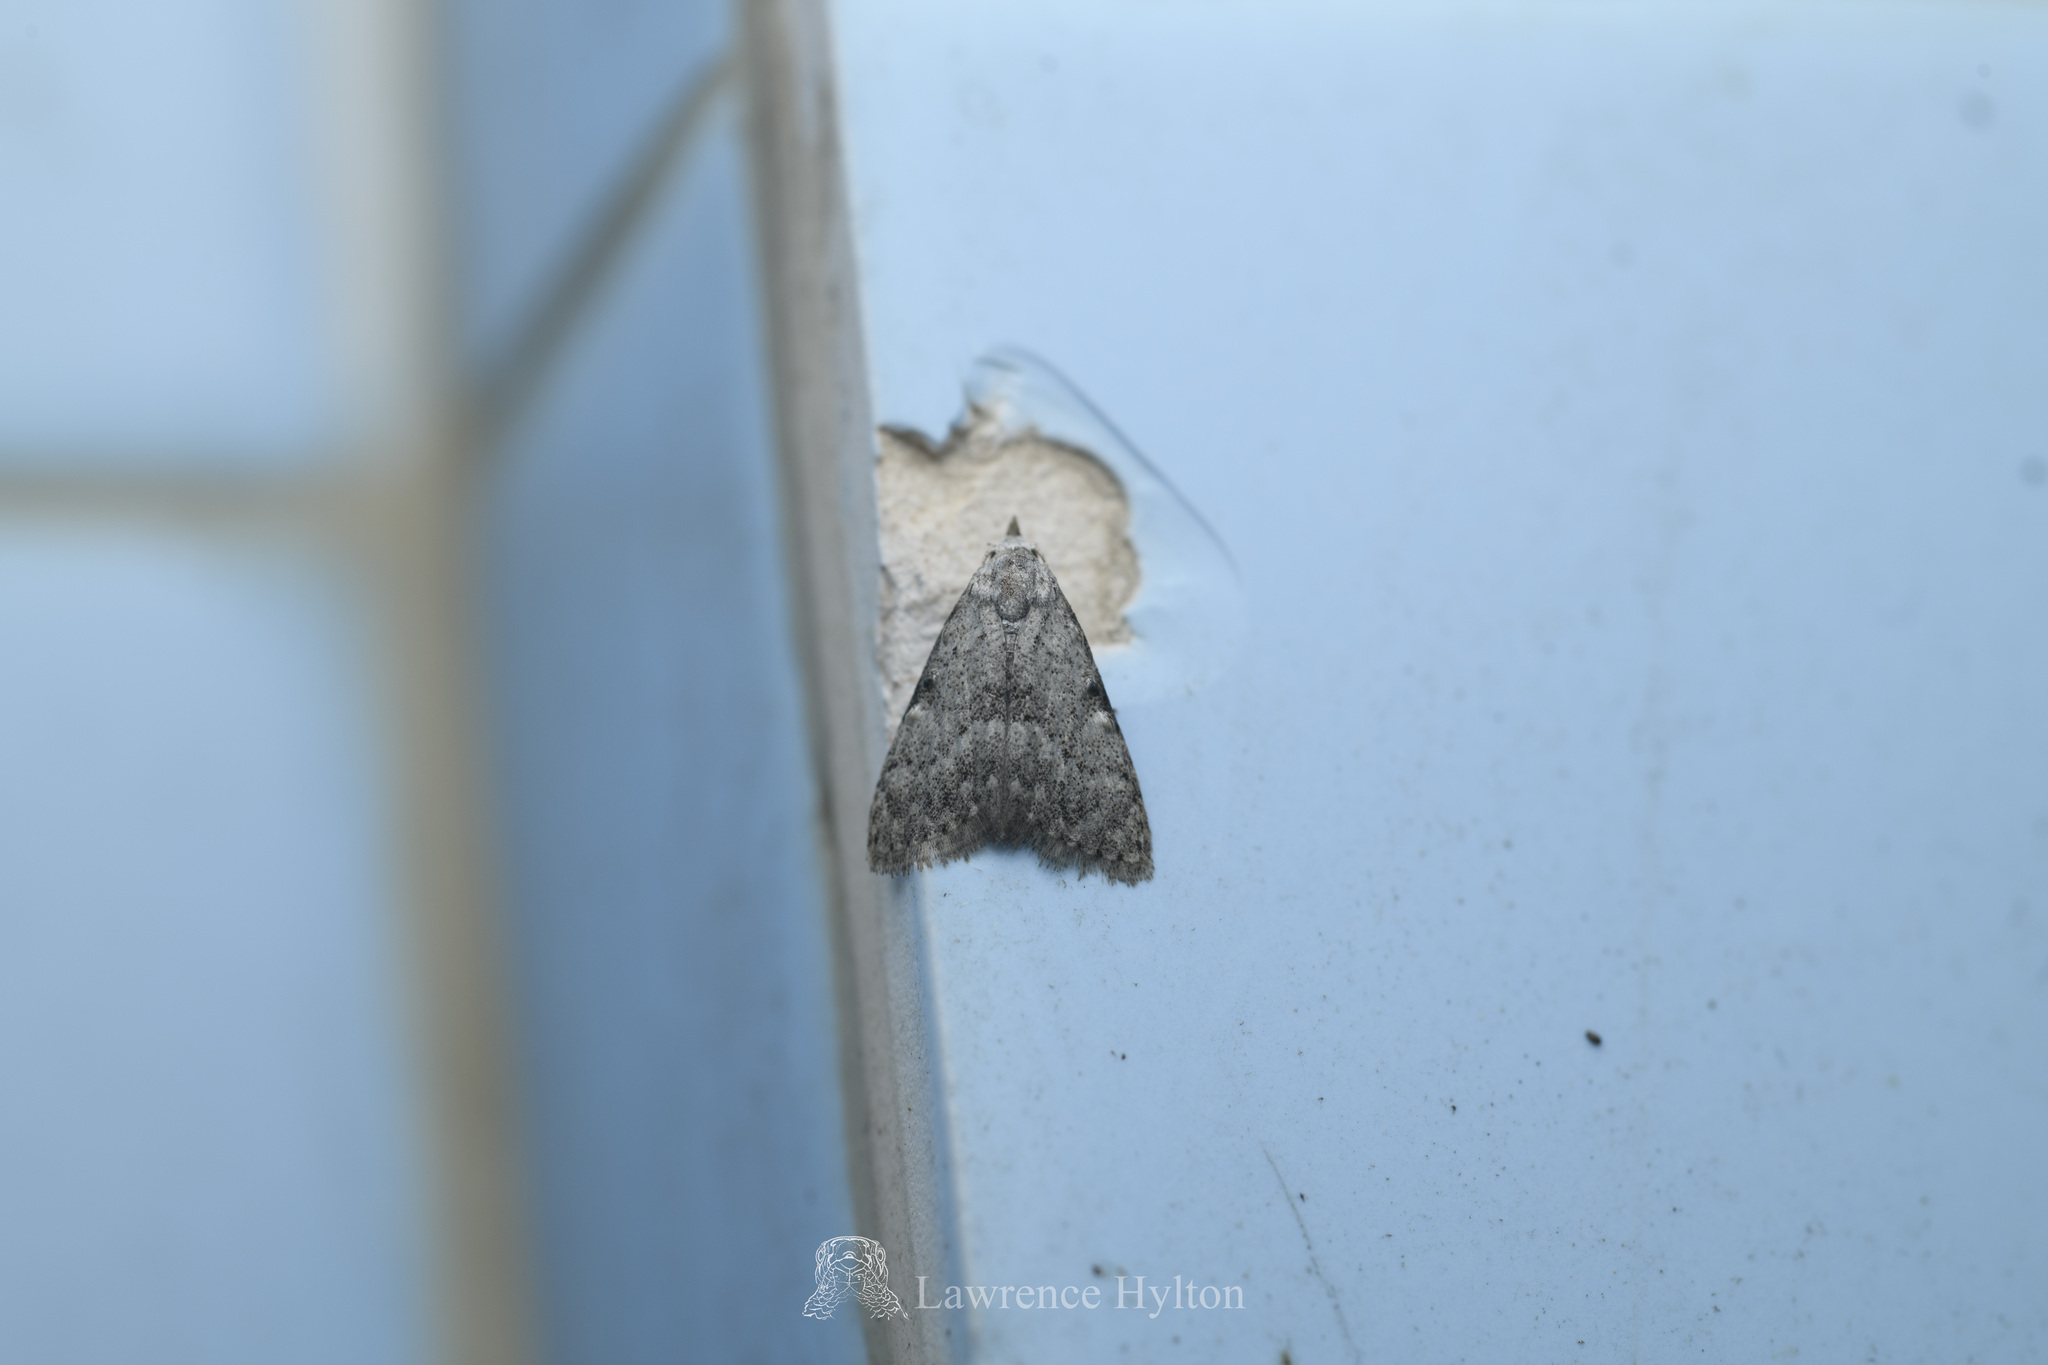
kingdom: Animalia
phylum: Arthropoda
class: Insecta
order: Lepidoptera
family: Nolidae
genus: Meganola
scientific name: Meganola melancholica
